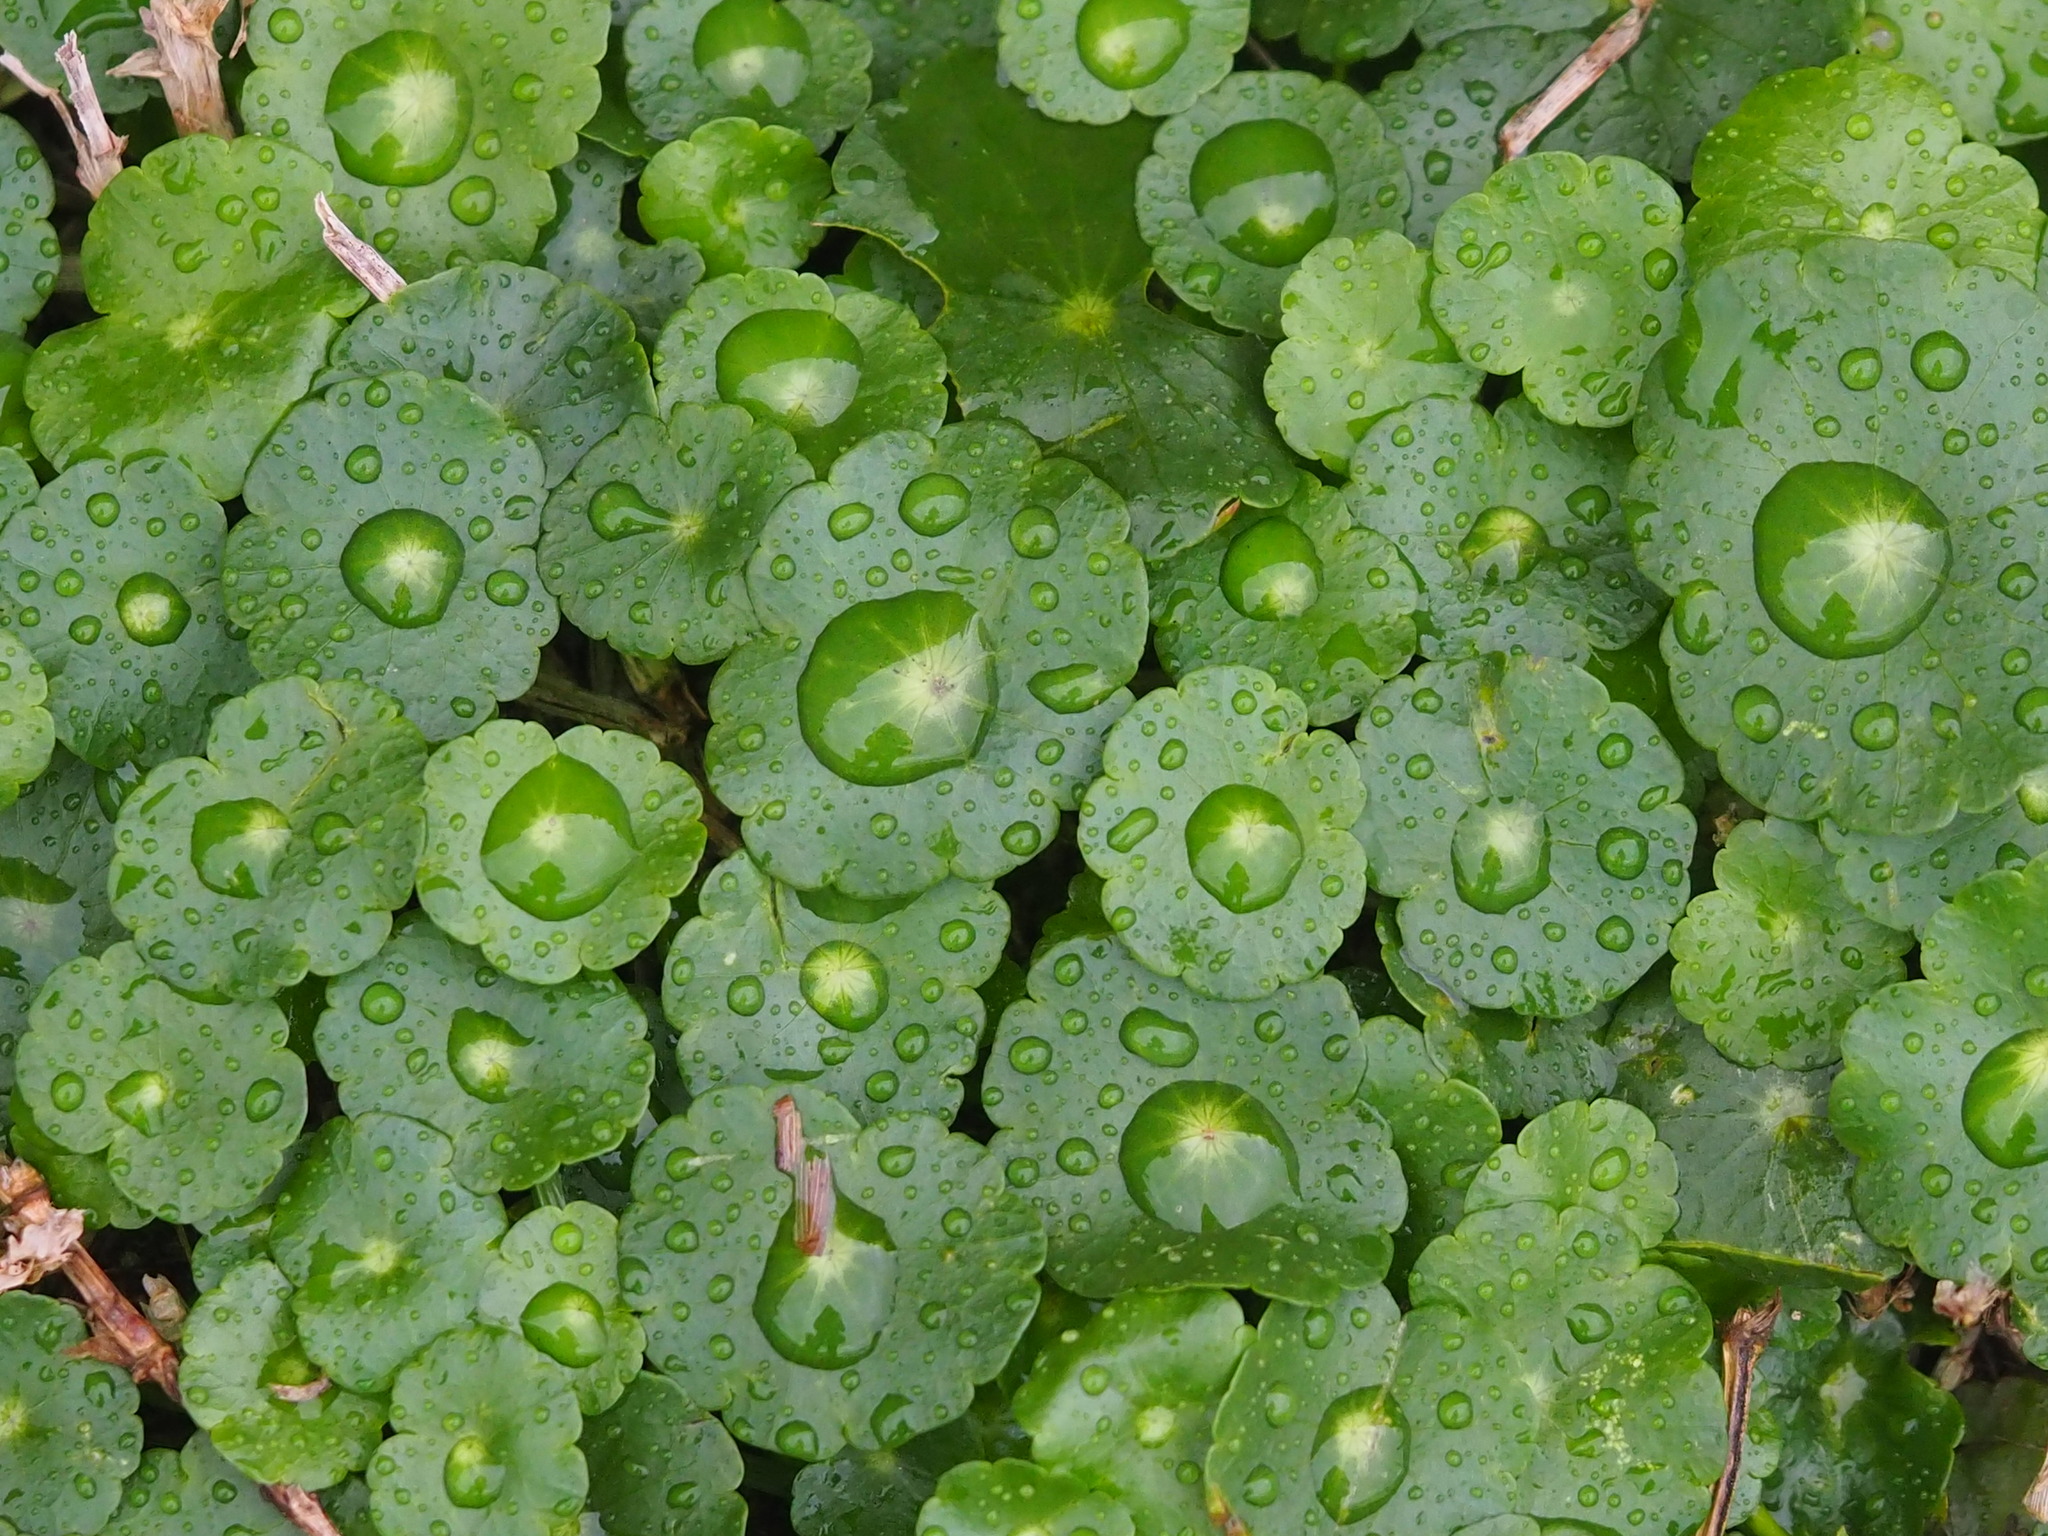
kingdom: Plantae
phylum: Tracheophyta
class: Magnoliopsida
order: Apiales
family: Araliaceae
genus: Hydrocotyle
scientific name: Hydrocotyle verticillata
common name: Whorled marshpennywort
